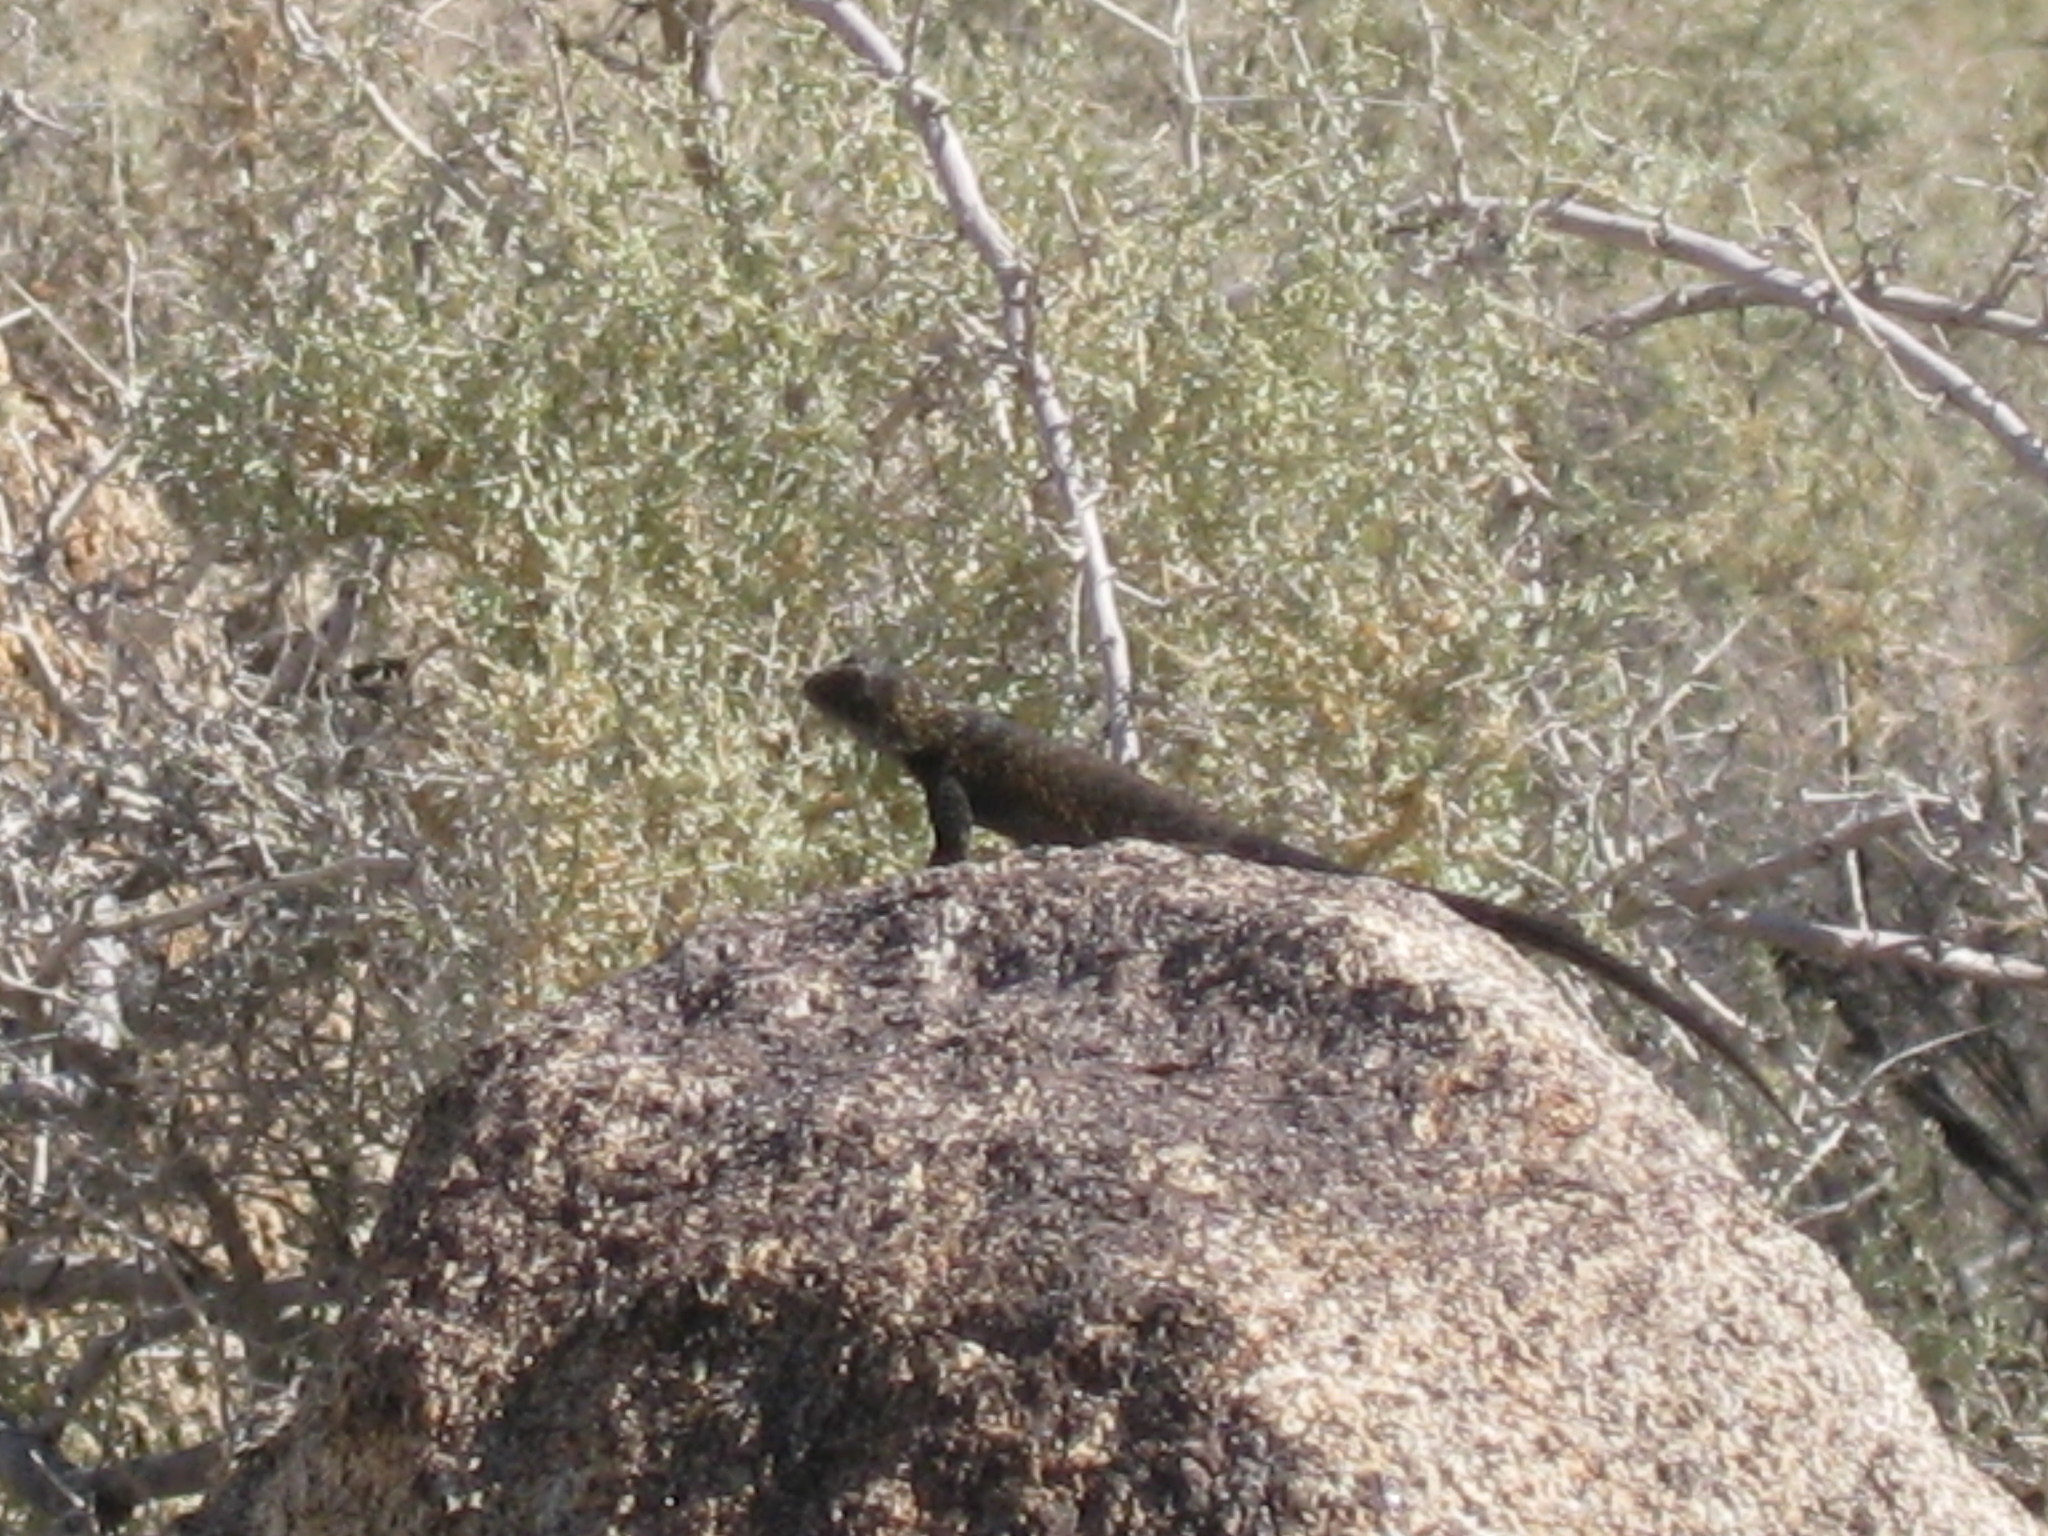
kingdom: Animalia
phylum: Chordata
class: Squamata
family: Phrynosomatidae
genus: Sceloporus
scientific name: Sceloporus orcutti
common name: Granite spiny lizard
